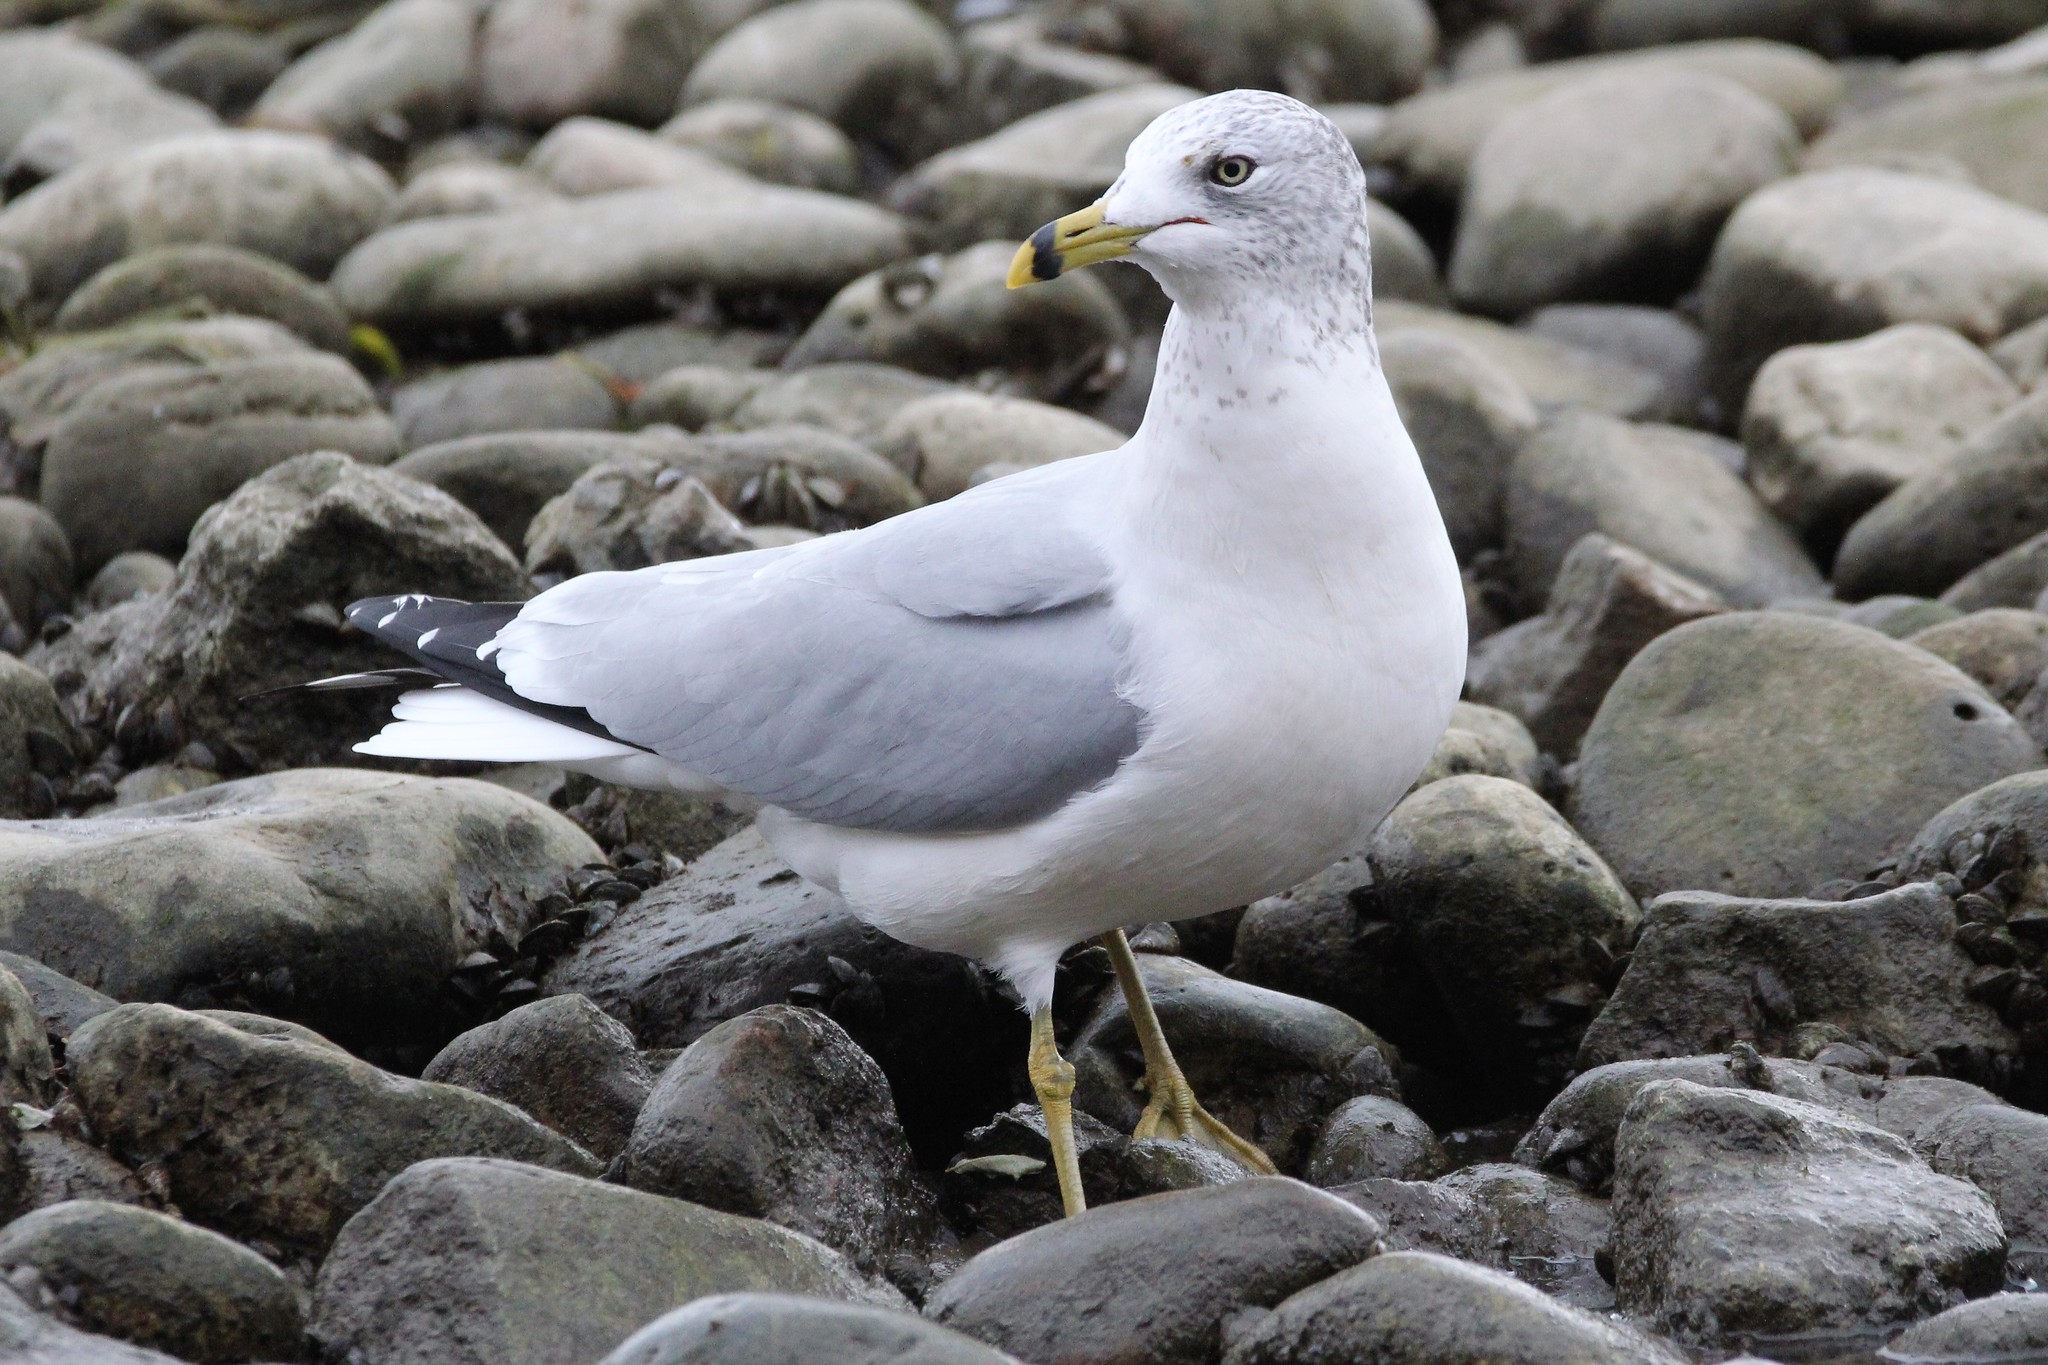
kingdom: Animalia
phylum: Chordata
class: Aves
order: Charadriiformes
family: Laridae
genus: Larus
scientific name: Larus delawarensis
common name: Ring-billed gull
